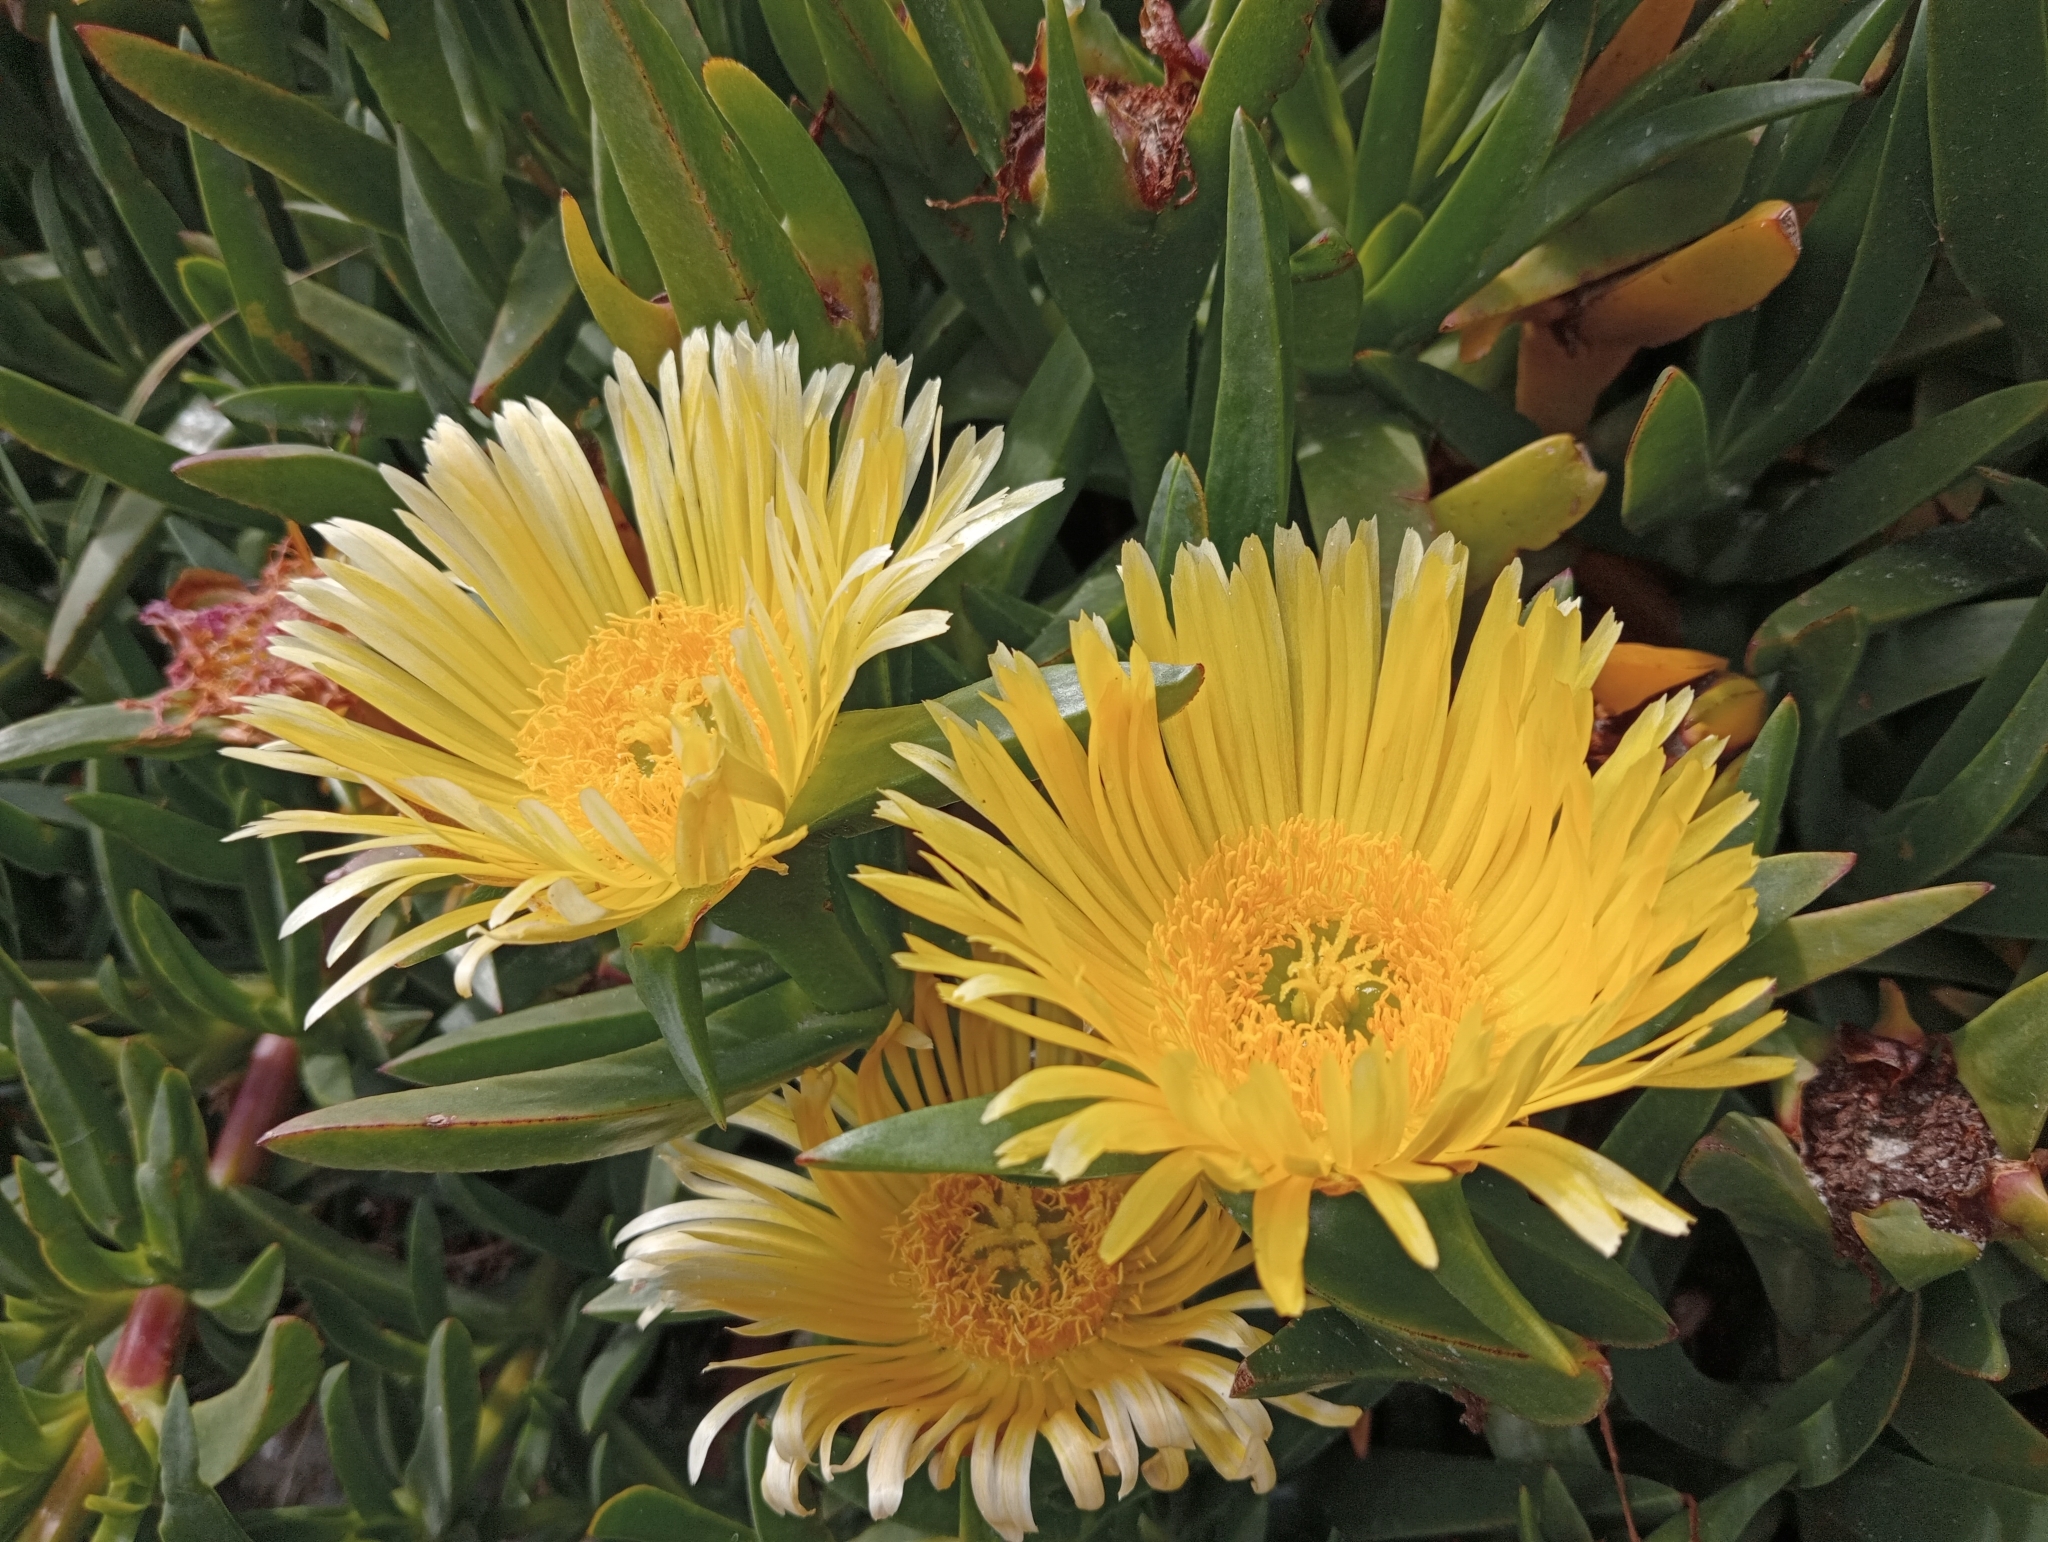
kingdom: Plantae
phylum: Tracheophyta
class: Magnoliopsida
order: Caryophyllales
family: Aizoaceae
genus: Carpobrotus
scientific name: Carpobrotus edulis
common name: Hottentot-fig
